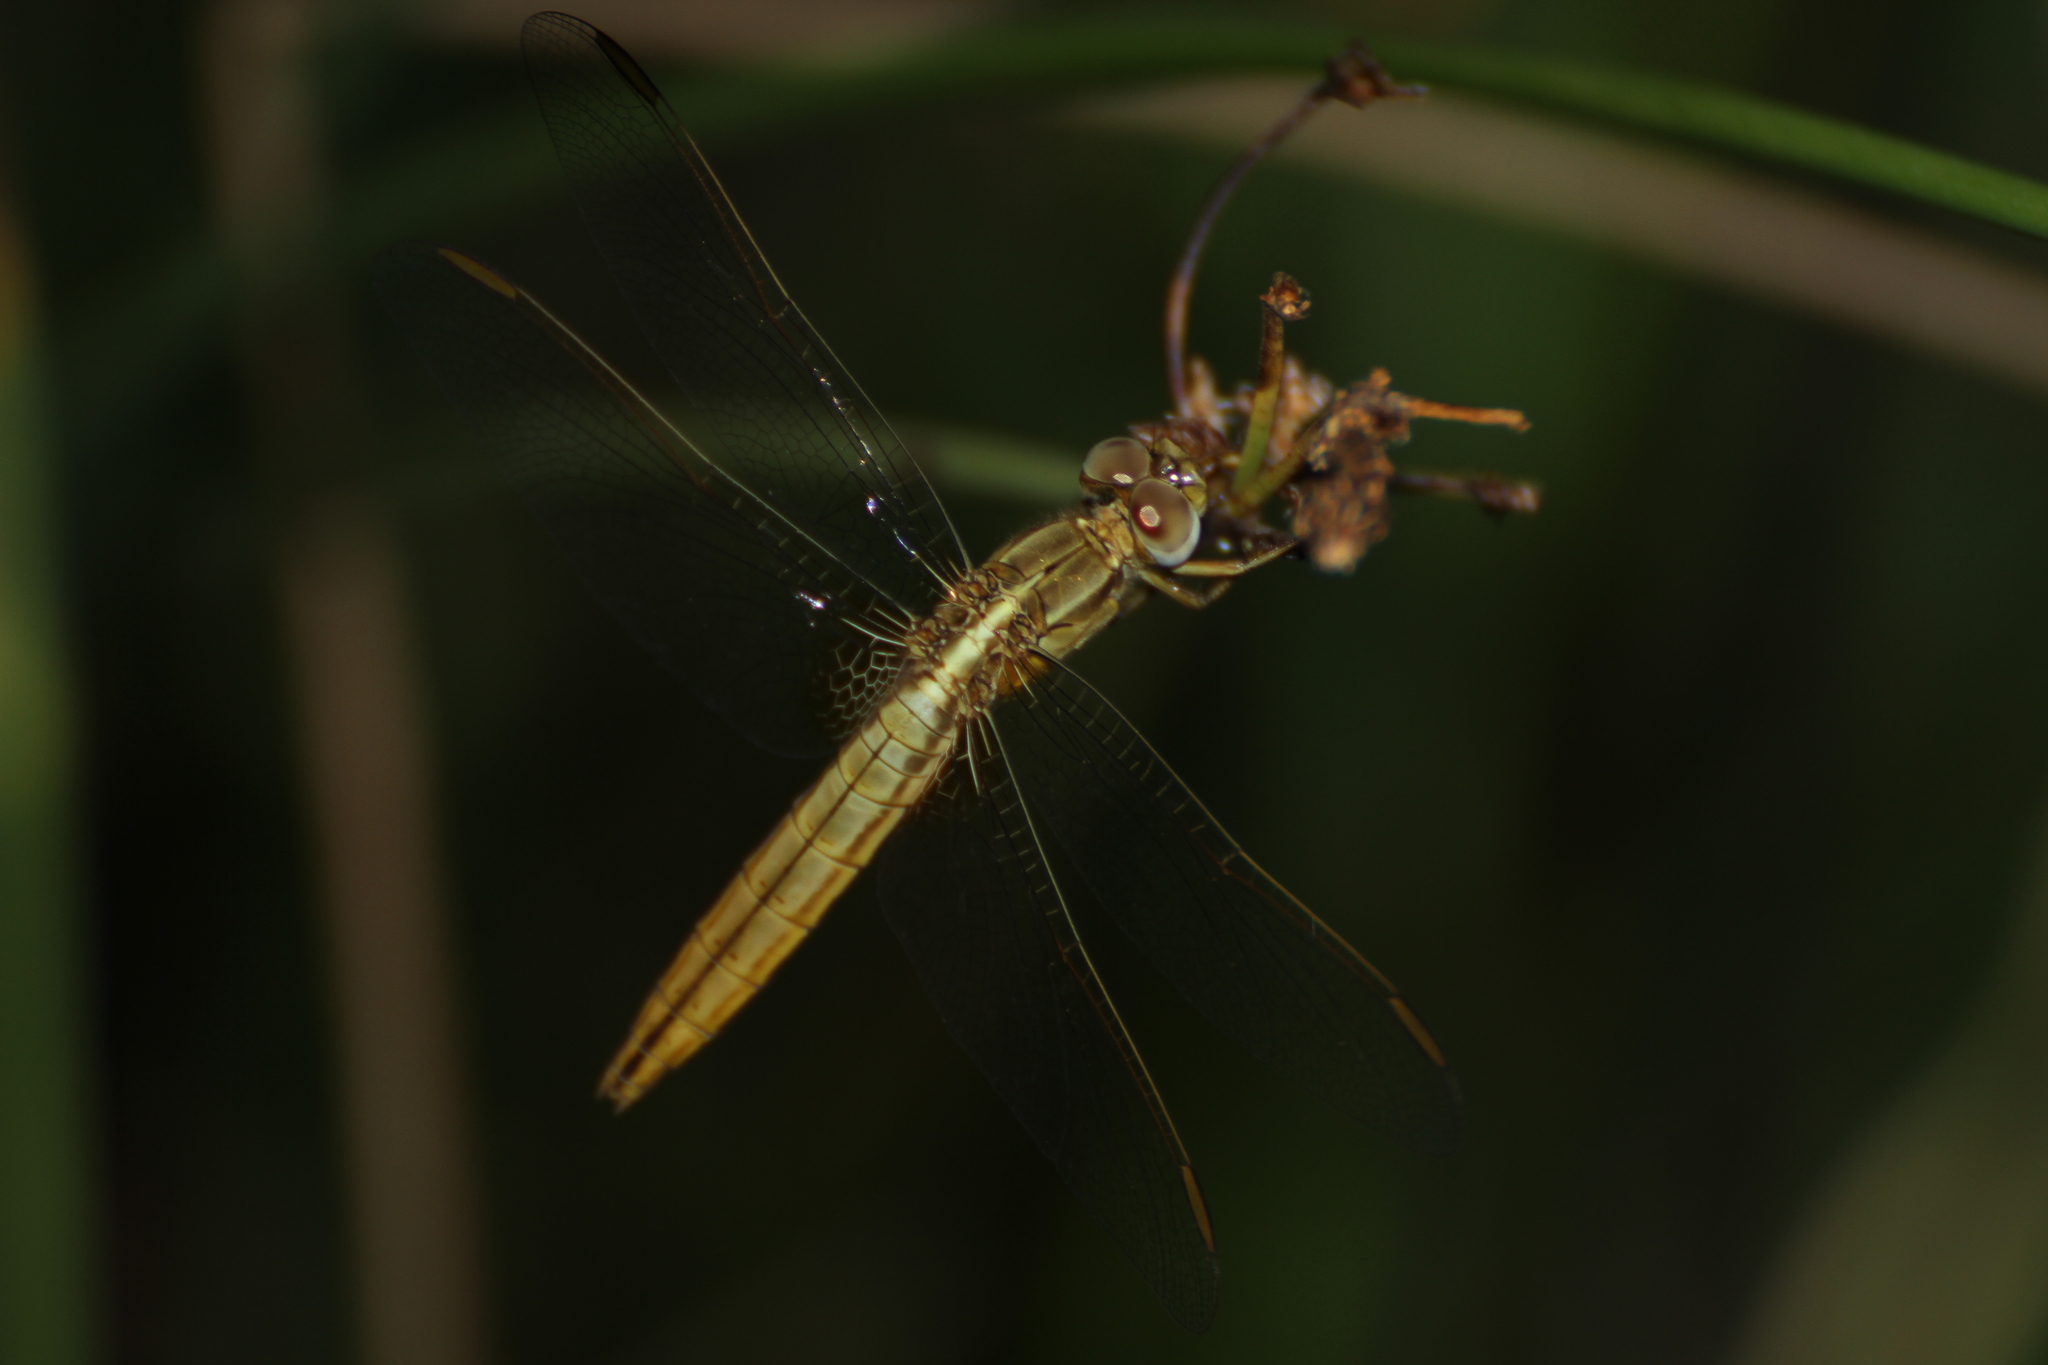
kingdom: Animalia
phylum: Arthropoda
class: Insecta
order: Odonata
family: Libellulidae
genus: Crocothemis
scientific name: Crocothemis erythraea
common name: Scarlet dragonfly
